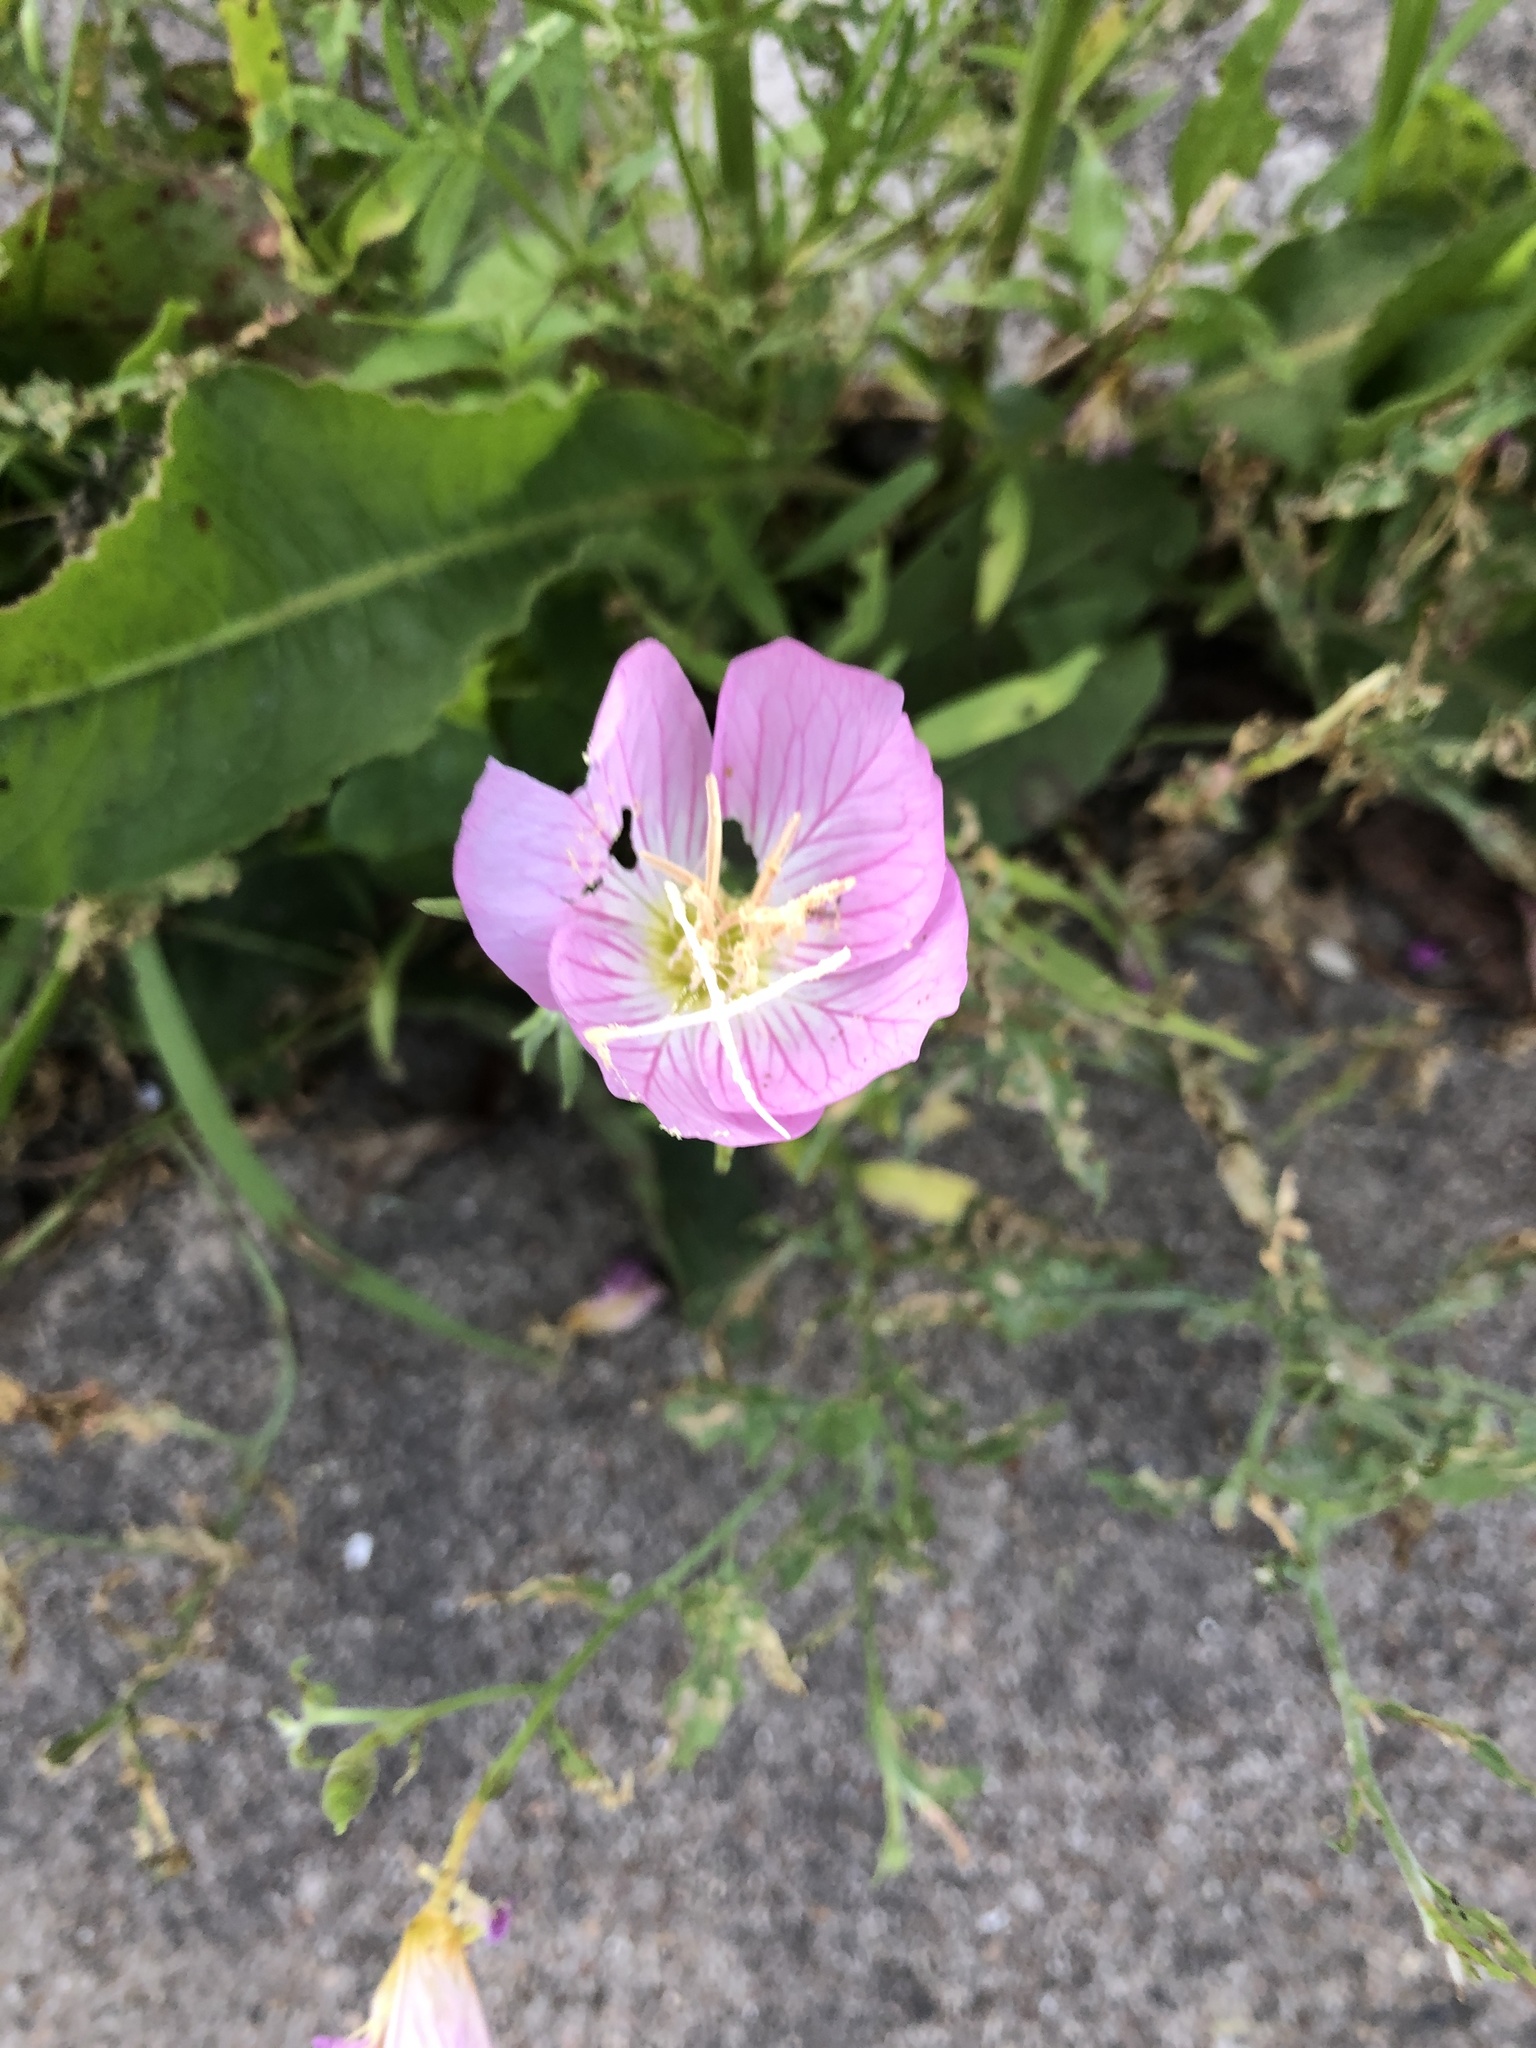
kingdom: Plantae
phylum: Tracheophyta
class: Magnoliopsida
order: Myrtales
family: Onagraceae
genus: Oenothera
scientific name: Oenothera speciosa
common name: White evening-primrose
